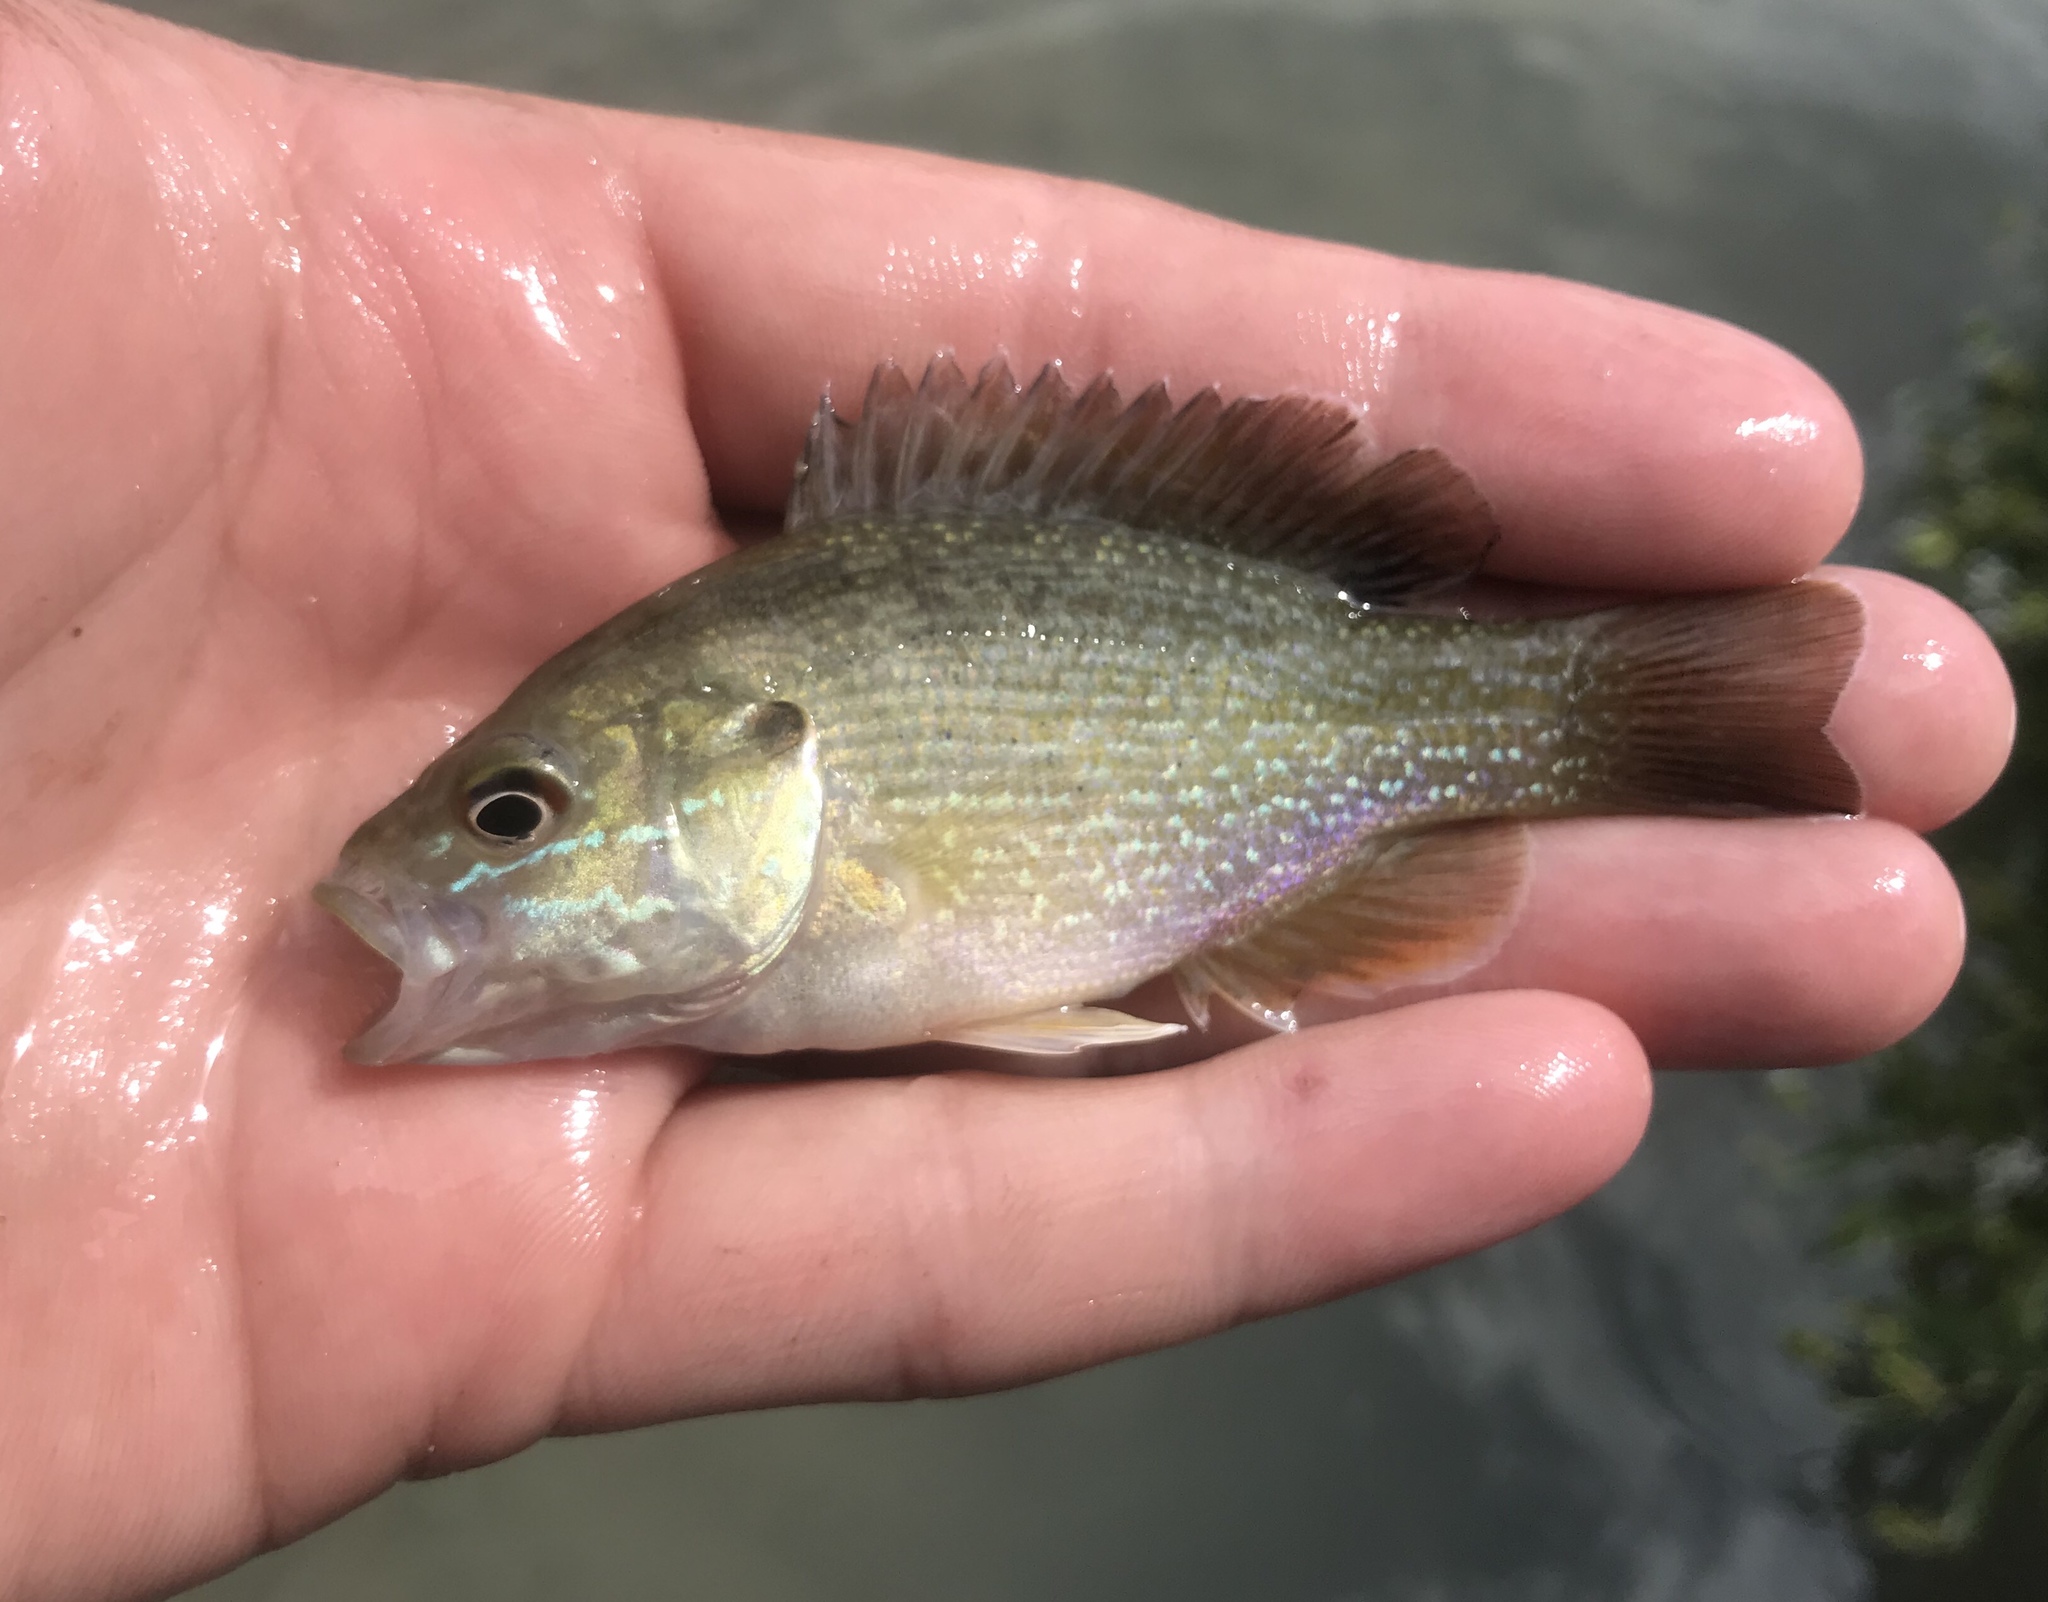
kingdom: Animalia
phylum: Chordata
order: Perciformes
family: Centrarchidae
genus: Lepomis
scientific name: Lepomis cyanellus
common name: Green sunfish
